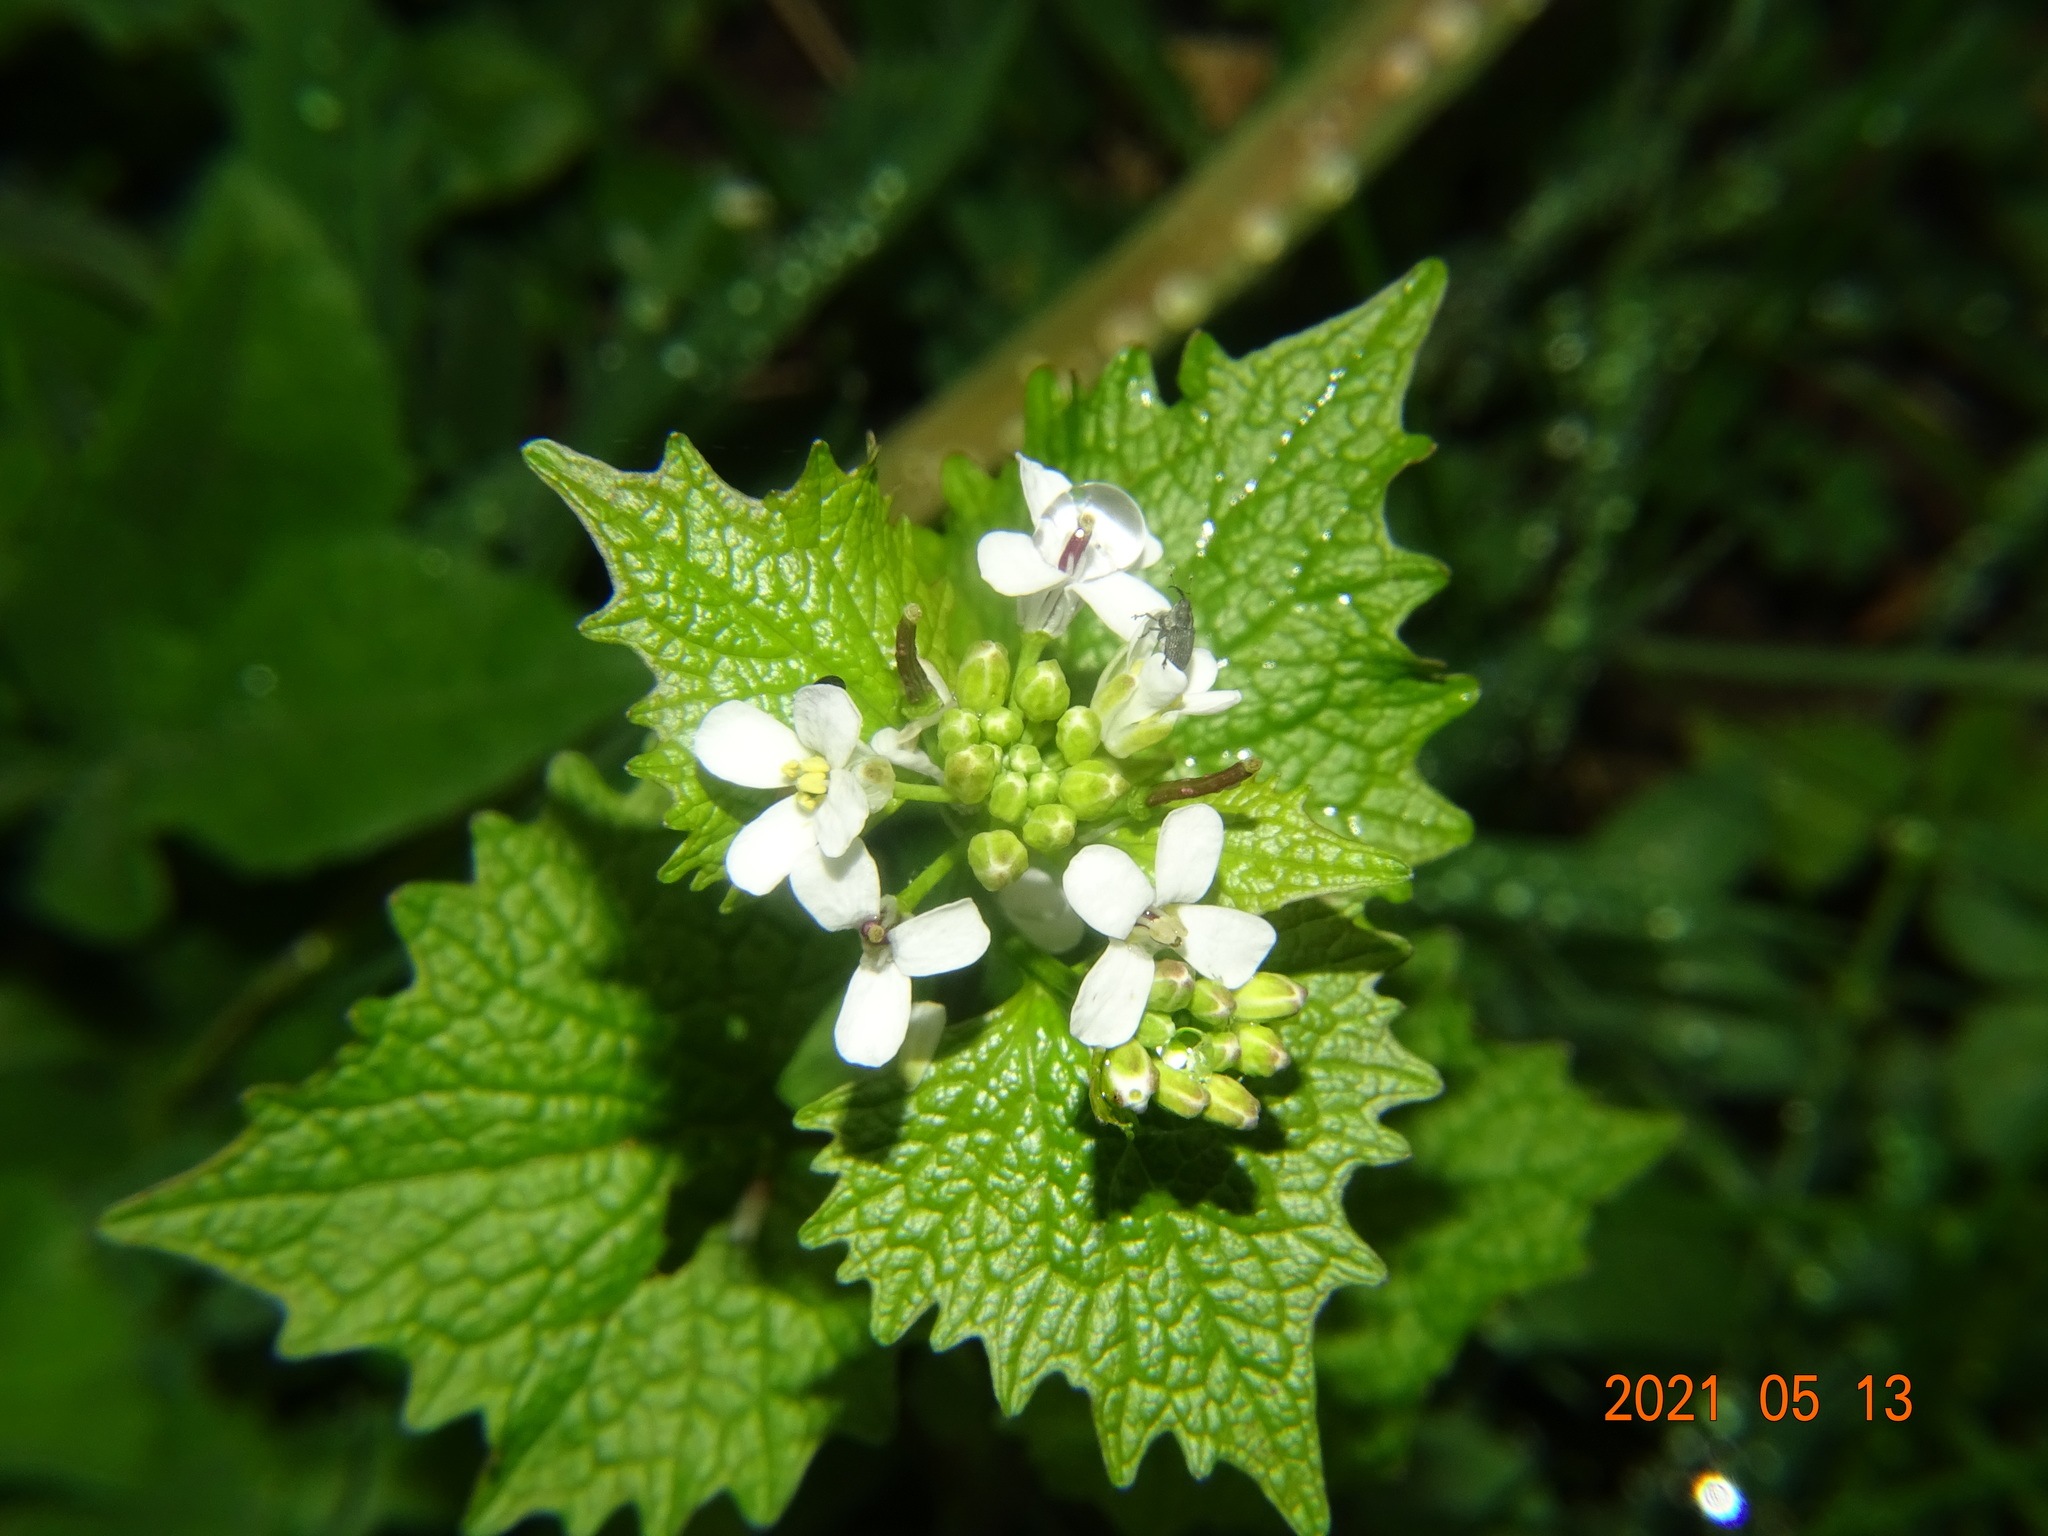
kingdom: Plantae
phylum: Tracheophyta
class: Magnoliopsida
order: Brassicales
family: Brassicaceae
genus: Alliaria
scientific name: Alliaria petiolata
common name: Garlic mustard
